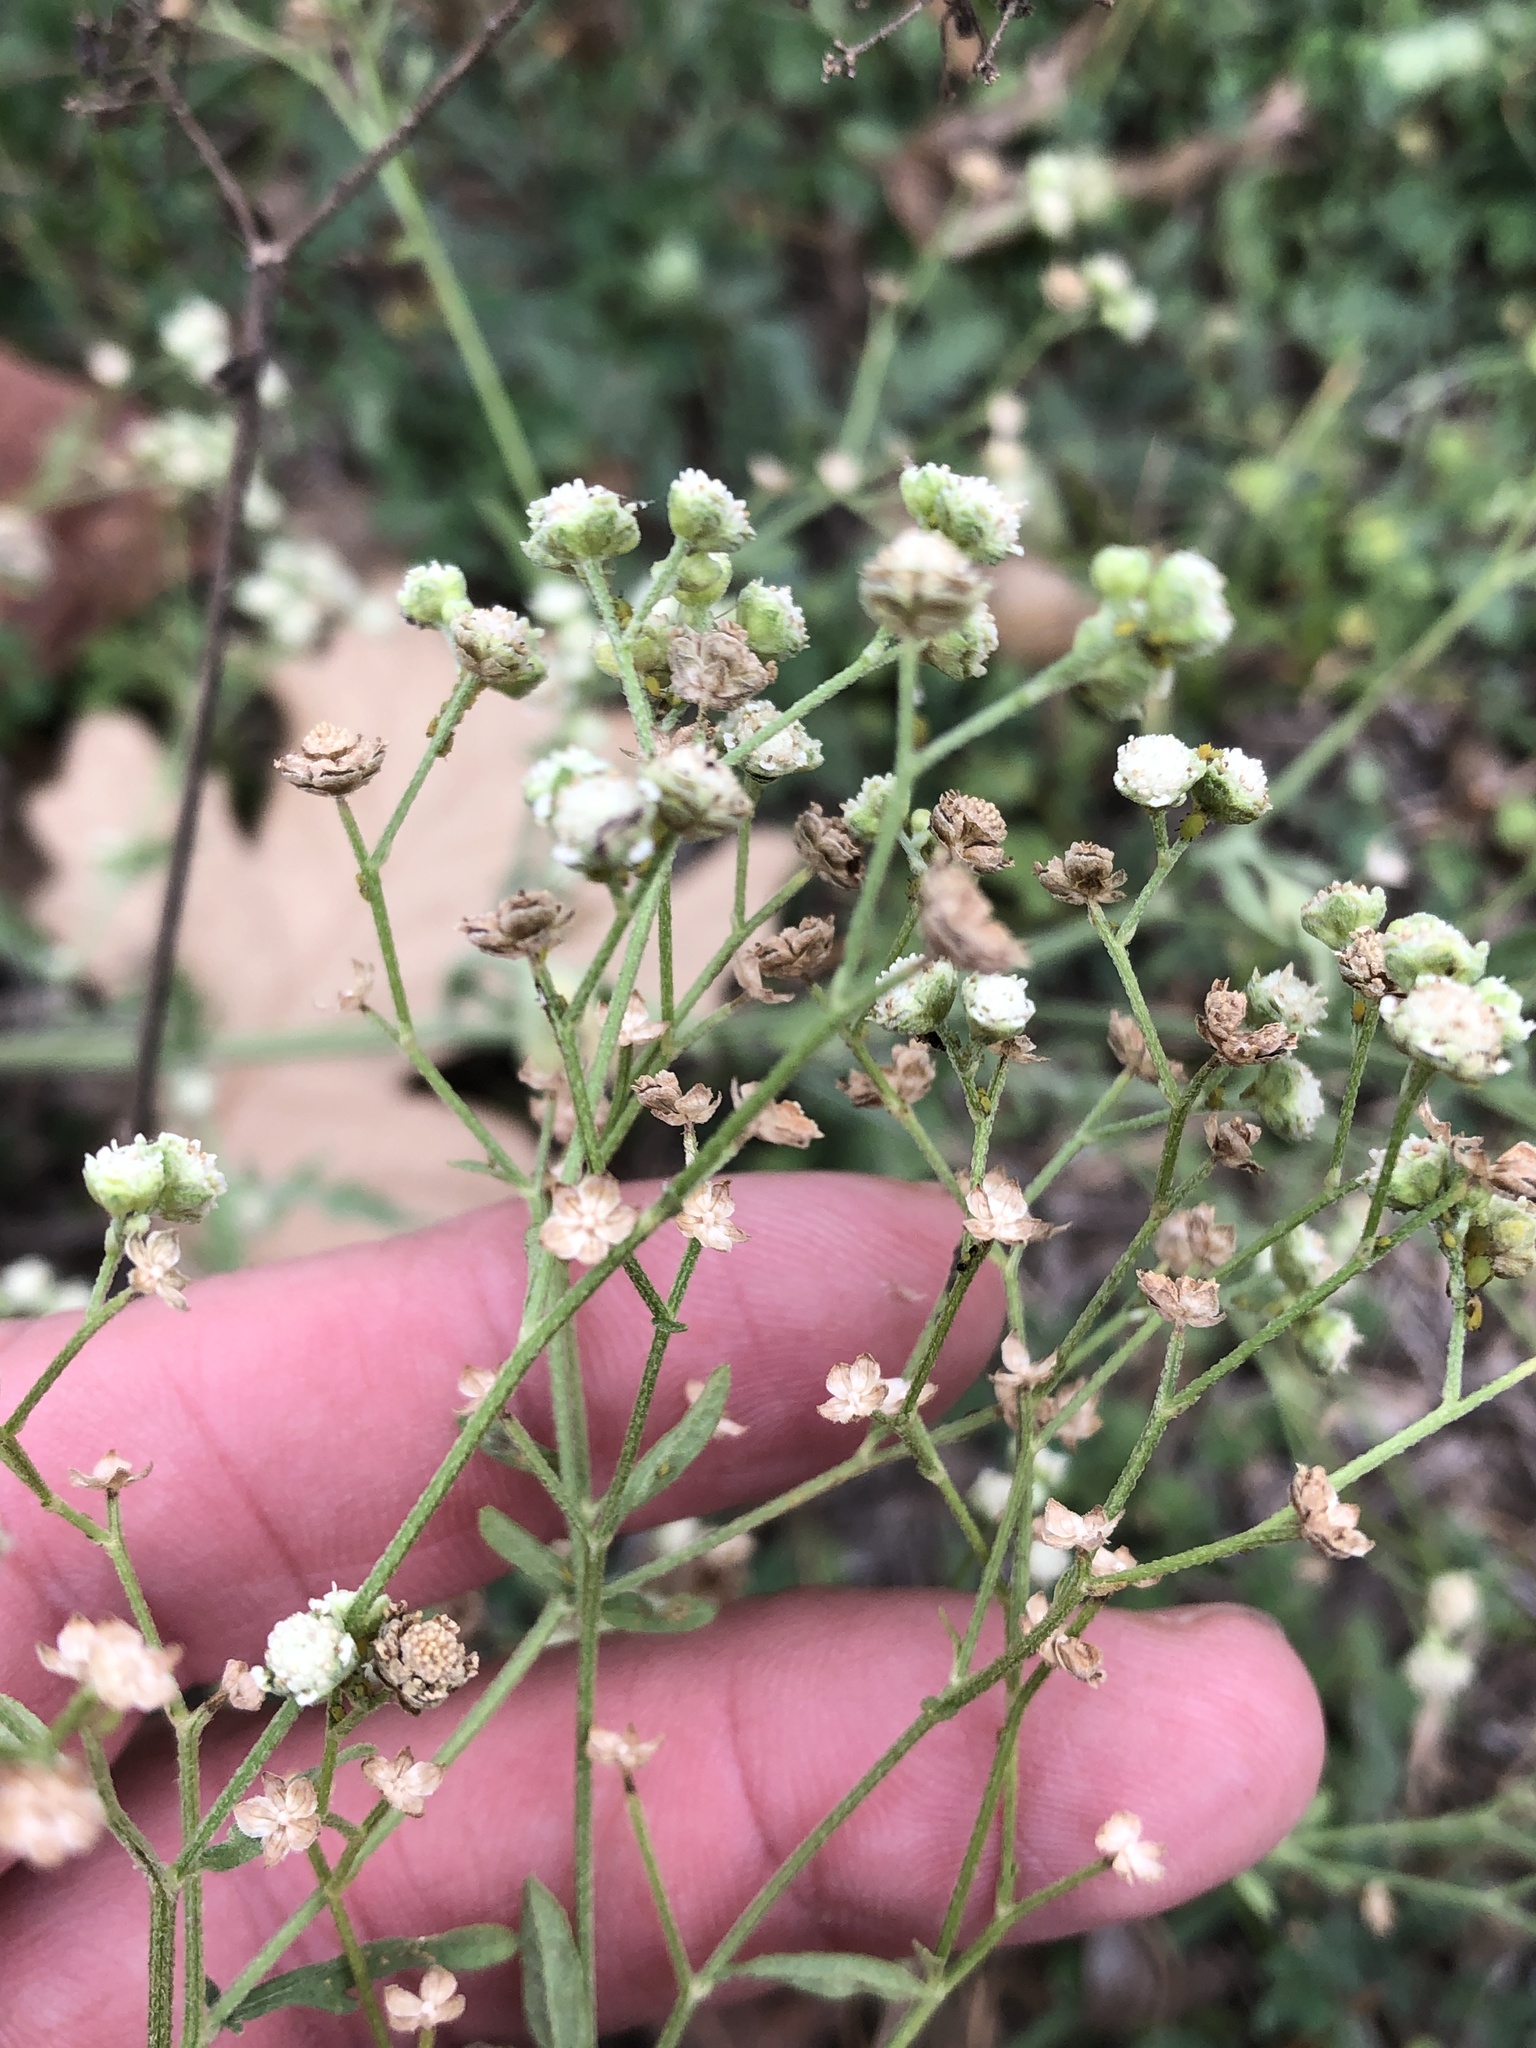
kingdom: Plantae
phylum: Tracheophyta
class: Magnoliopsida
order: Asterales
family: Asteraceae
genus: Parthenium
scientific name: Parthenium hysterophorus
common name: Santa maria feverfew
